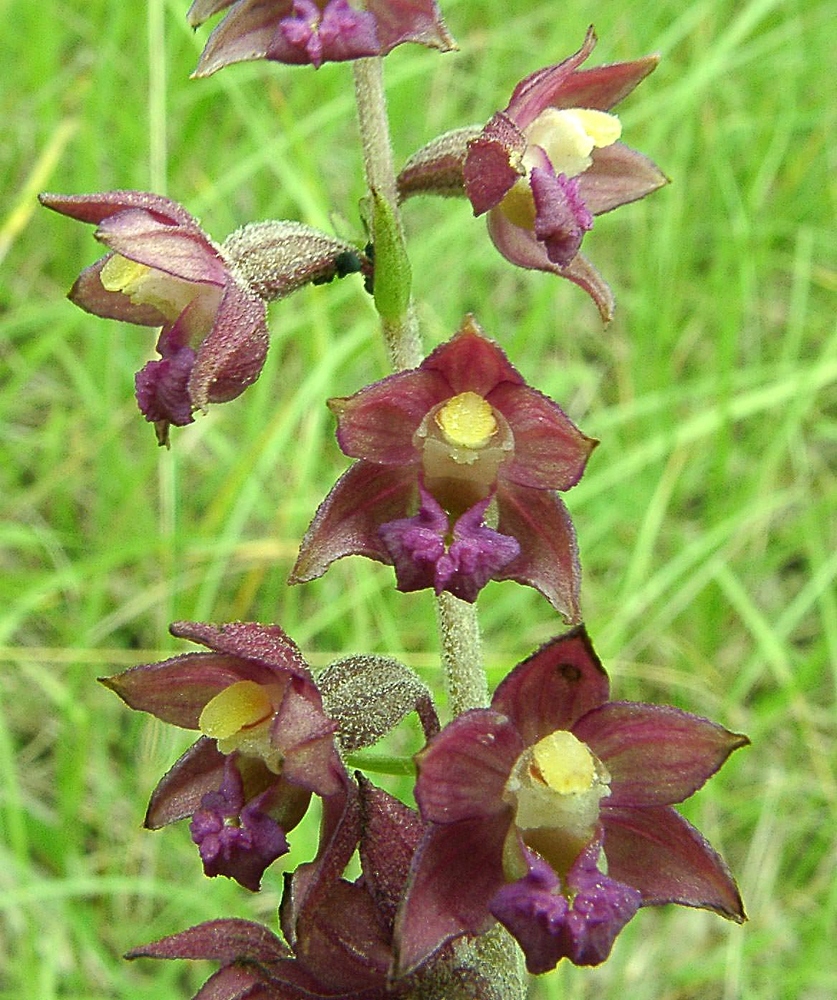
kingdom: Plantae
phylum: Tracheophyta
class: Liliopsida
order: Asparagales
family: Orchidaceae
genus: Epipactis
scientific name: Epipactis atrorubens
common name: Dark-red helleborine
